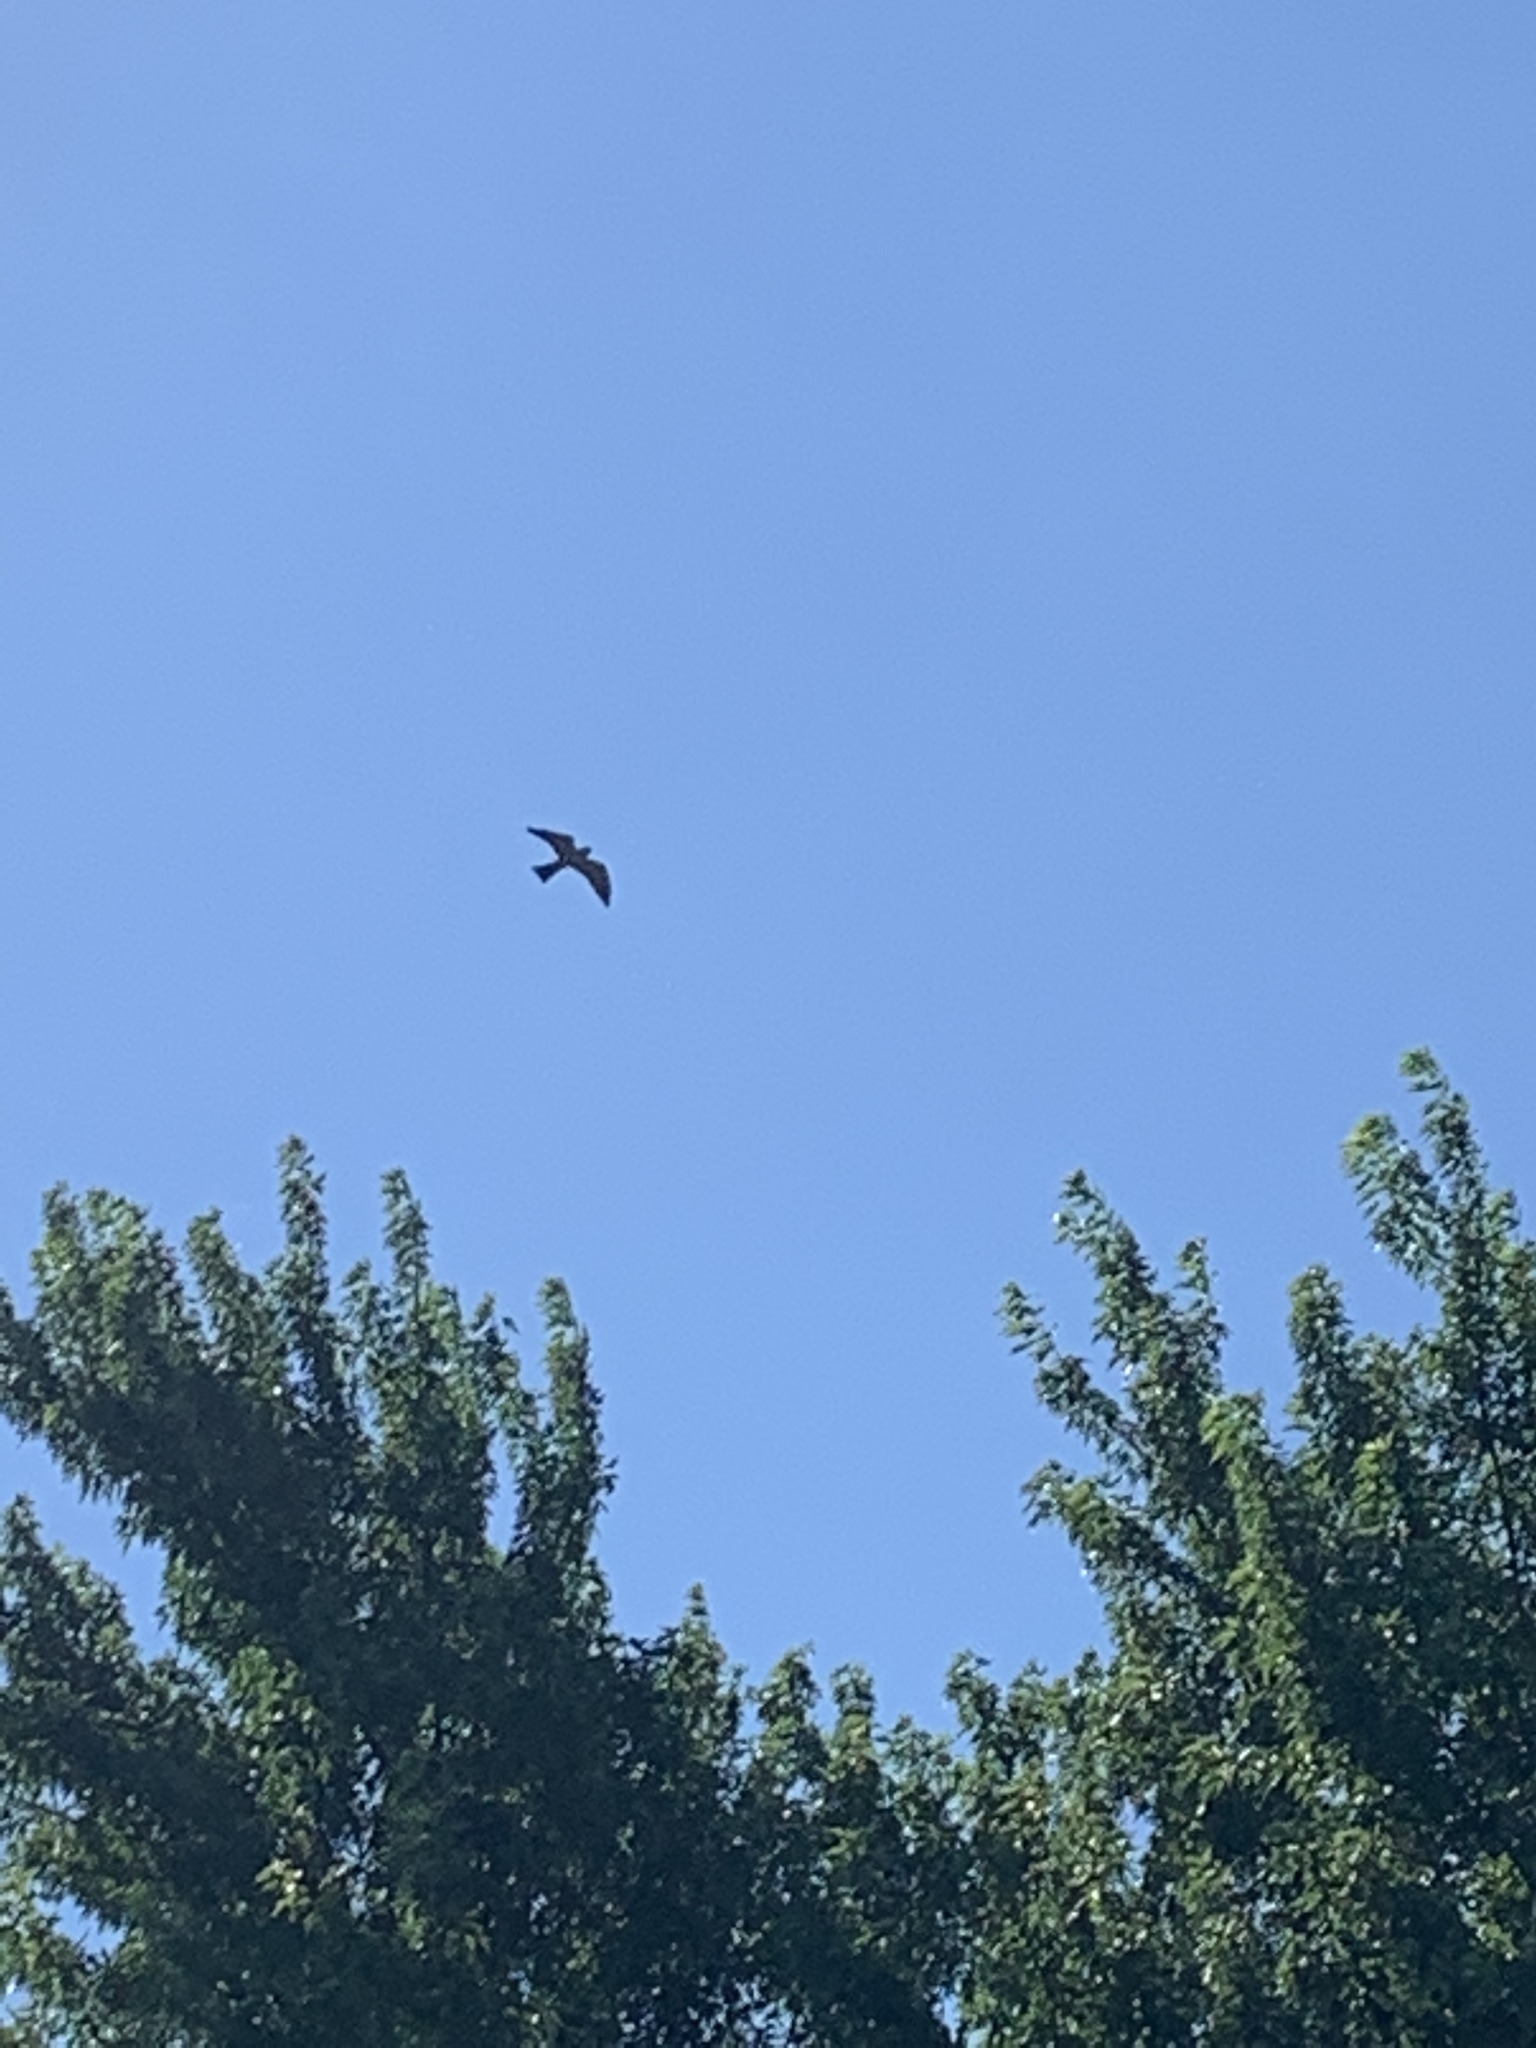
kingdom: Animalia
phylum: Chordata
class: Aves
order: Accipitriformes
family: Accipitridae
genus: Ictinia
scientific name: Ictinia mississippiensis
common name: Mississippi kite
